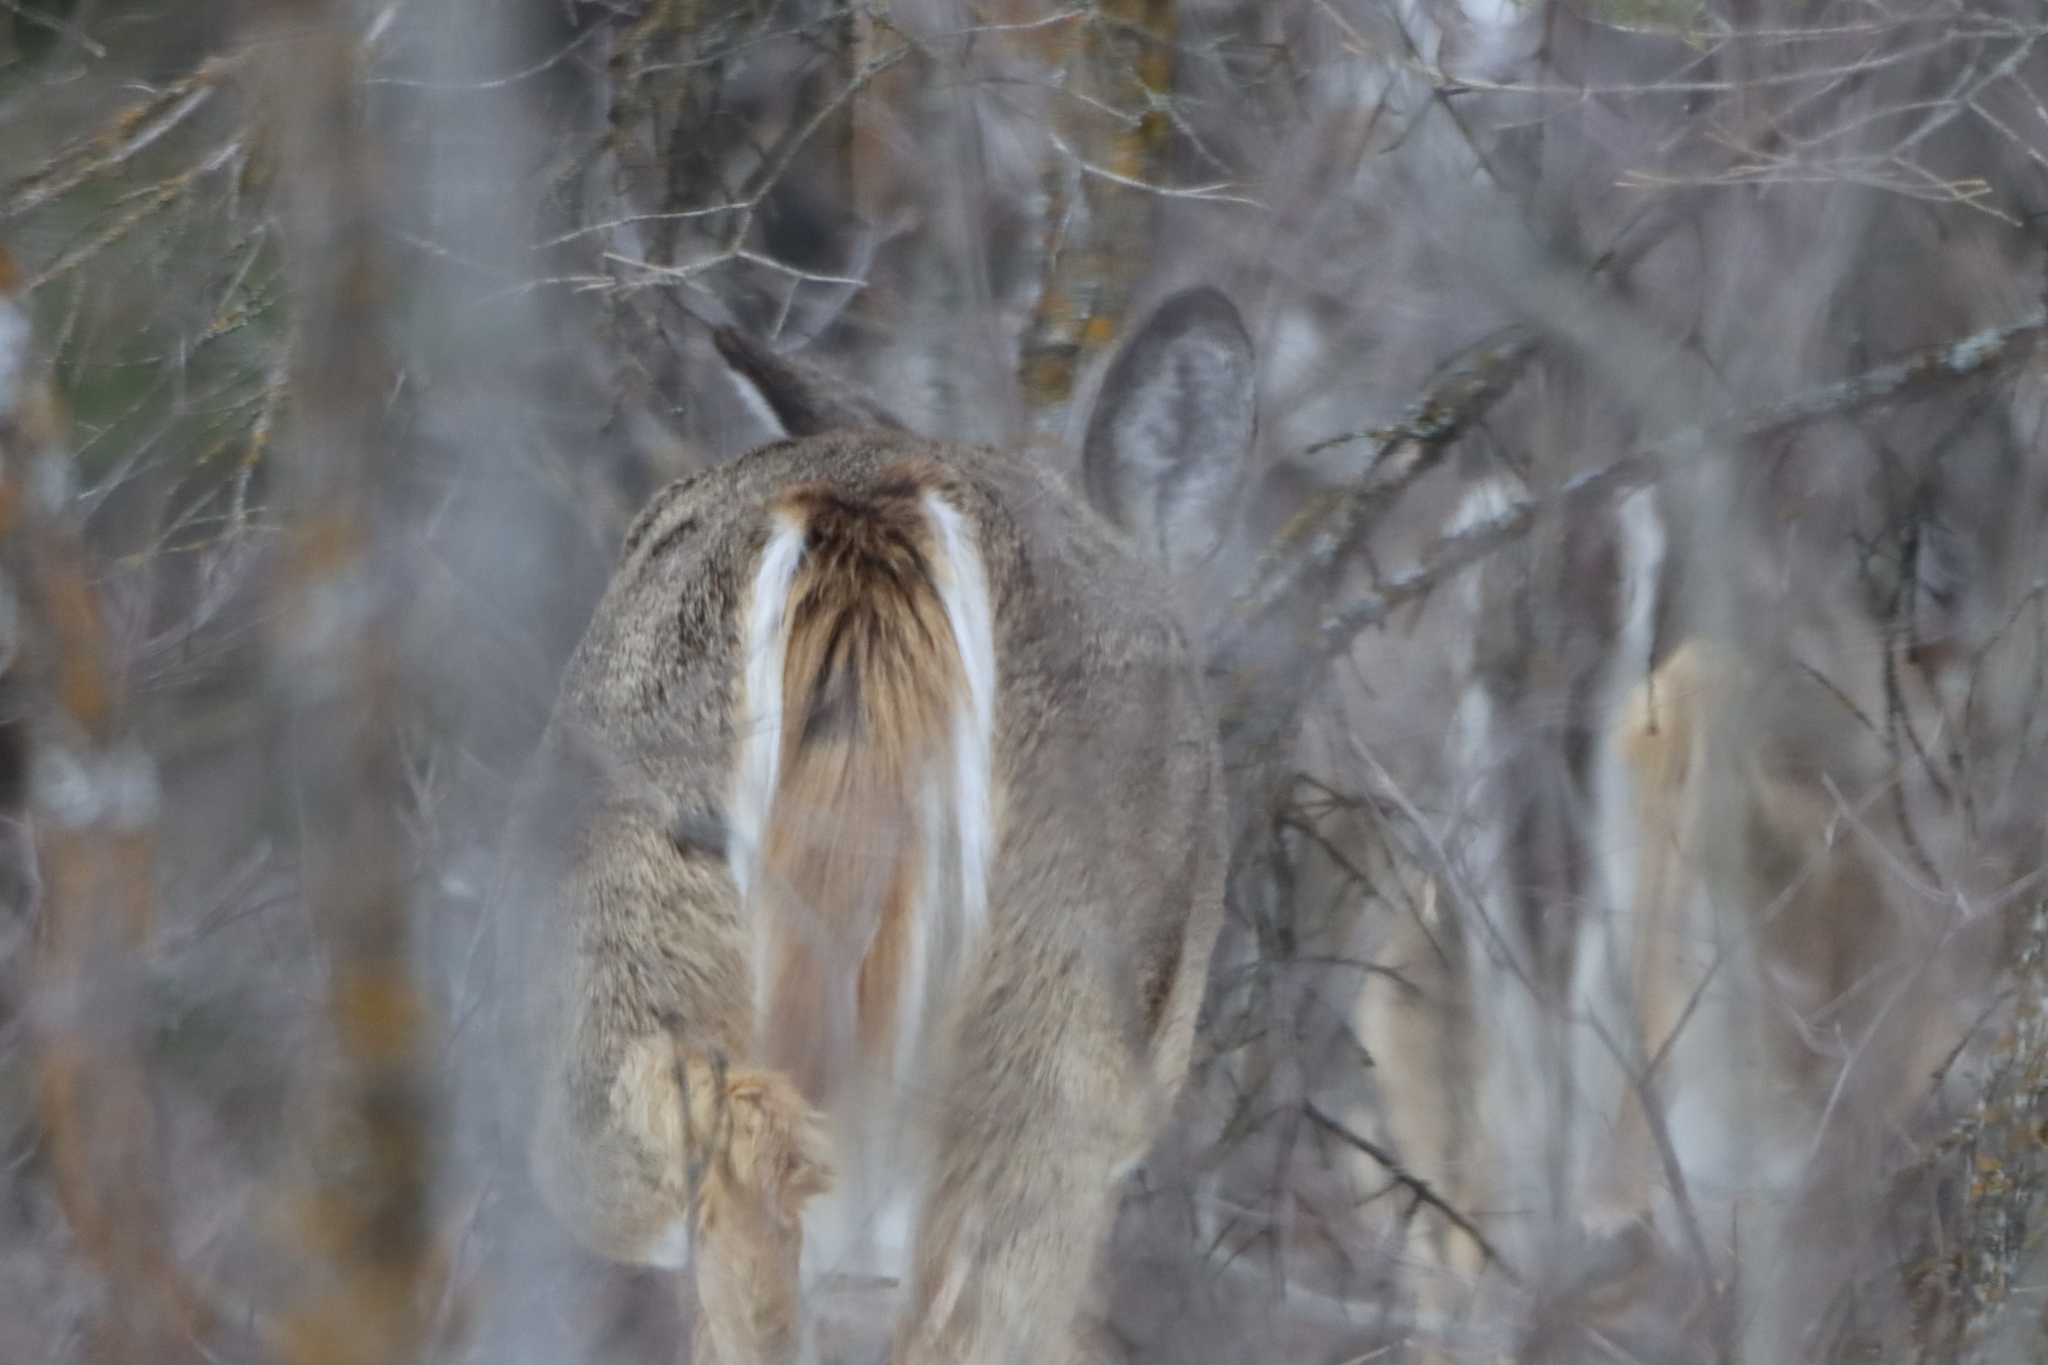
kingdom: Animalia
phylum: Chordata
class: Mammalia
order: Artiodactyla
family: Cervidae
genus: Odocoileus
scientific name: Odocoileus virginianus
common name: White-tailed deer
